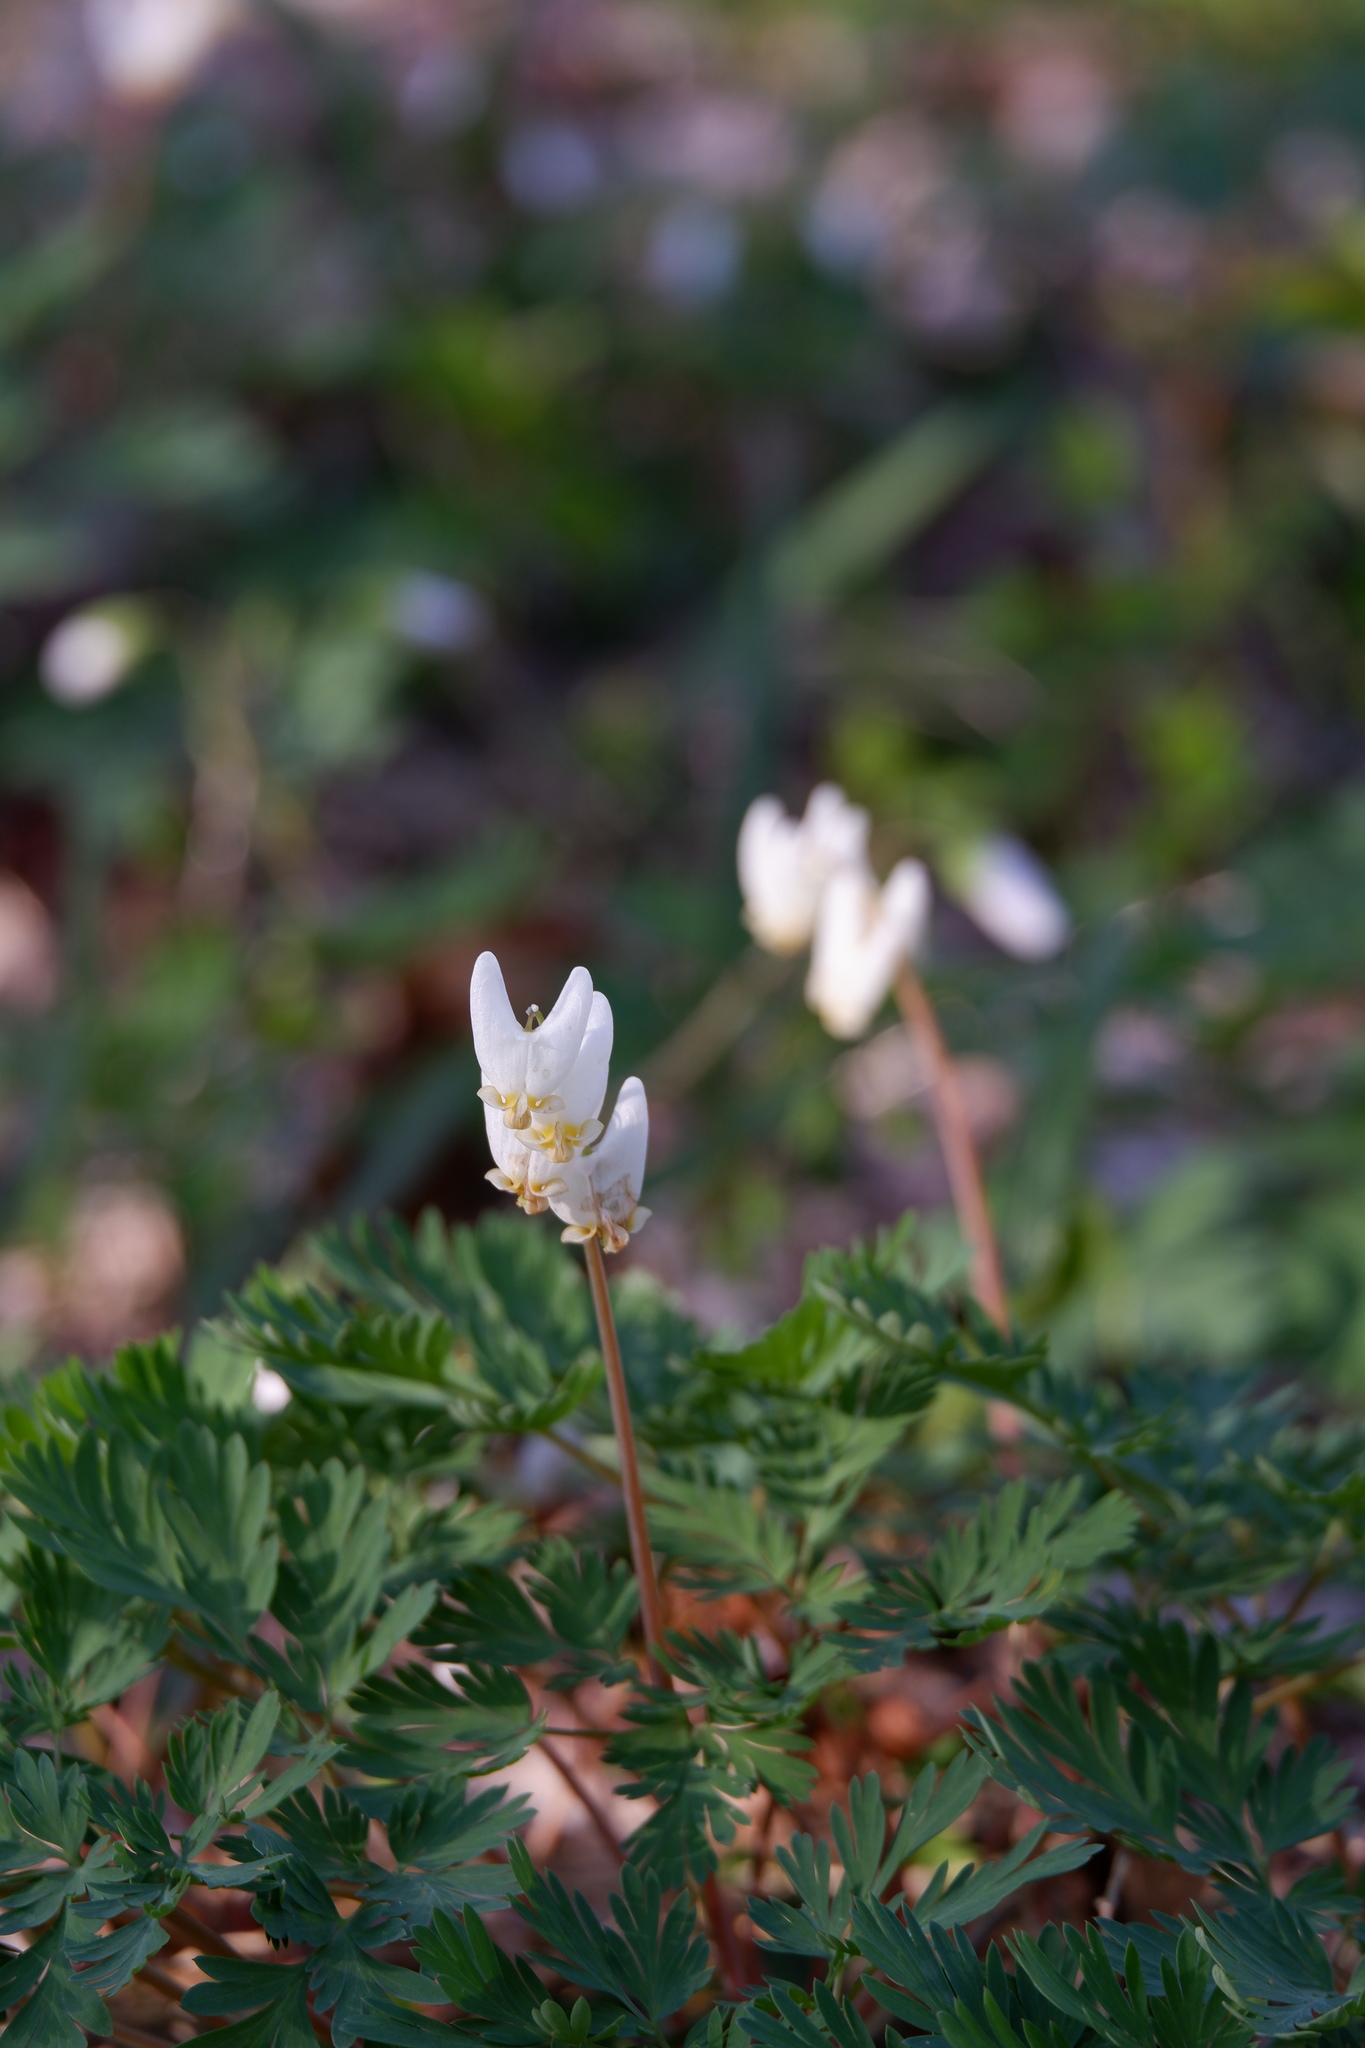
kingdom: Plantae
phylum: Tracheophyta
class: Magnoliopsida
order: Ranunculales
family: Papaveraceae
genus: Dicentra
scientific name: Dicentra cucullaria
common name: Dutchman's breeches
